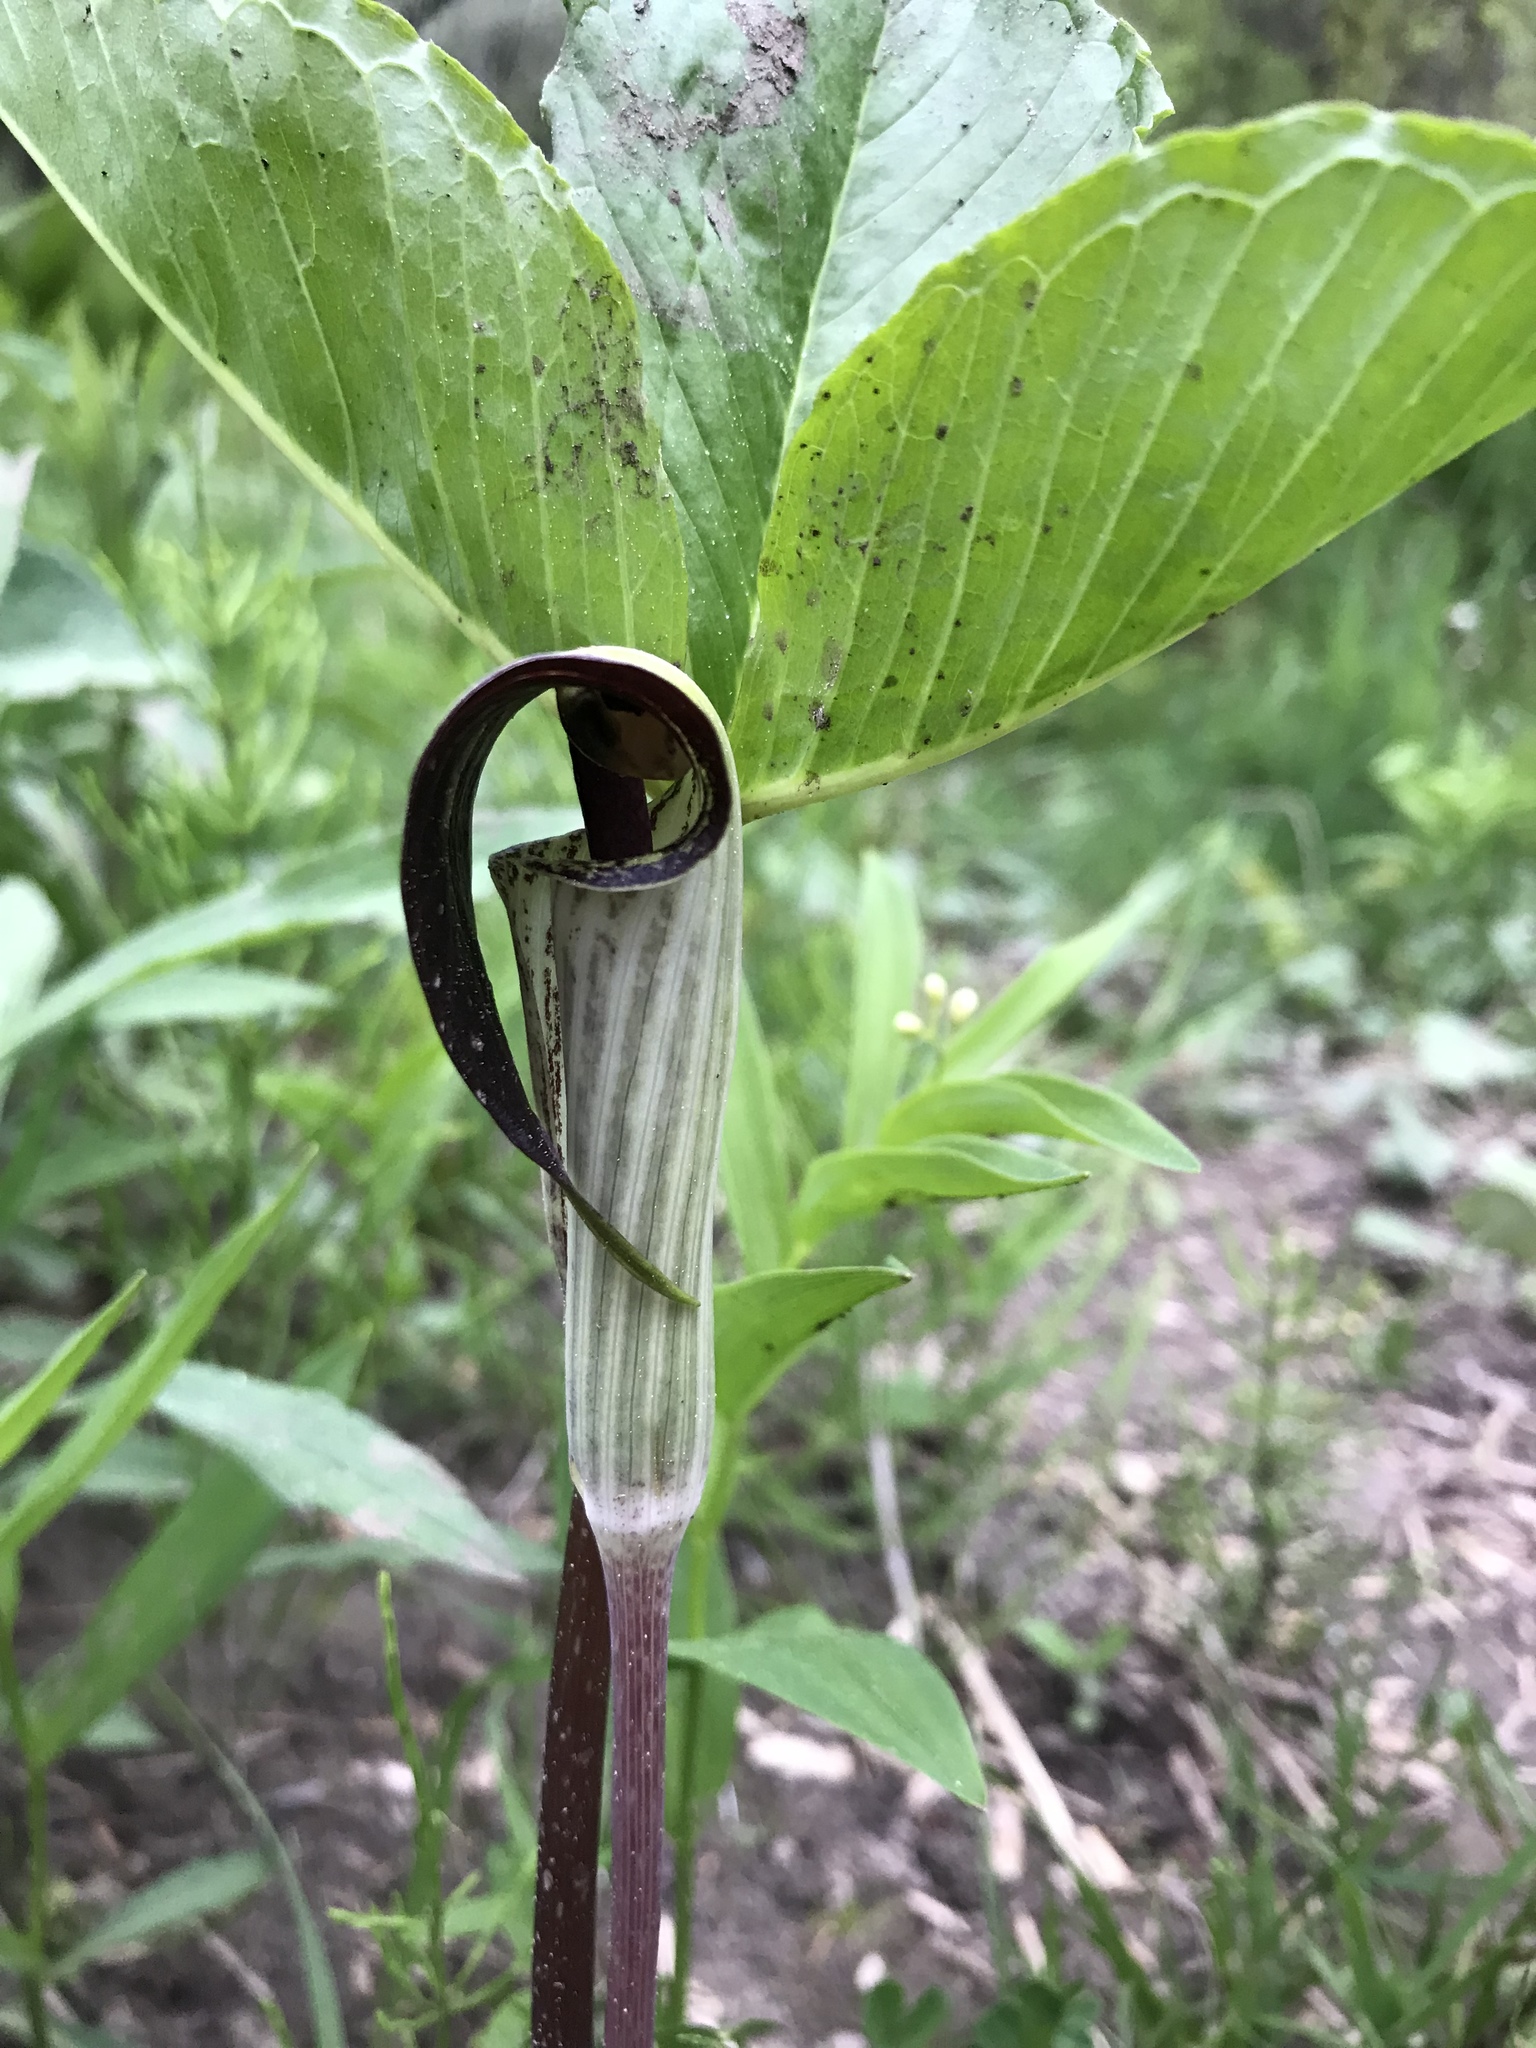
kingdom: Plantae
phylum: Tracheophyta
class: Liliopsida
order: Alismatales
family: Araceae
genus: Arisaema
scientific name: Arisaema triphyllum
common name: Jack-in-the-pulpit
